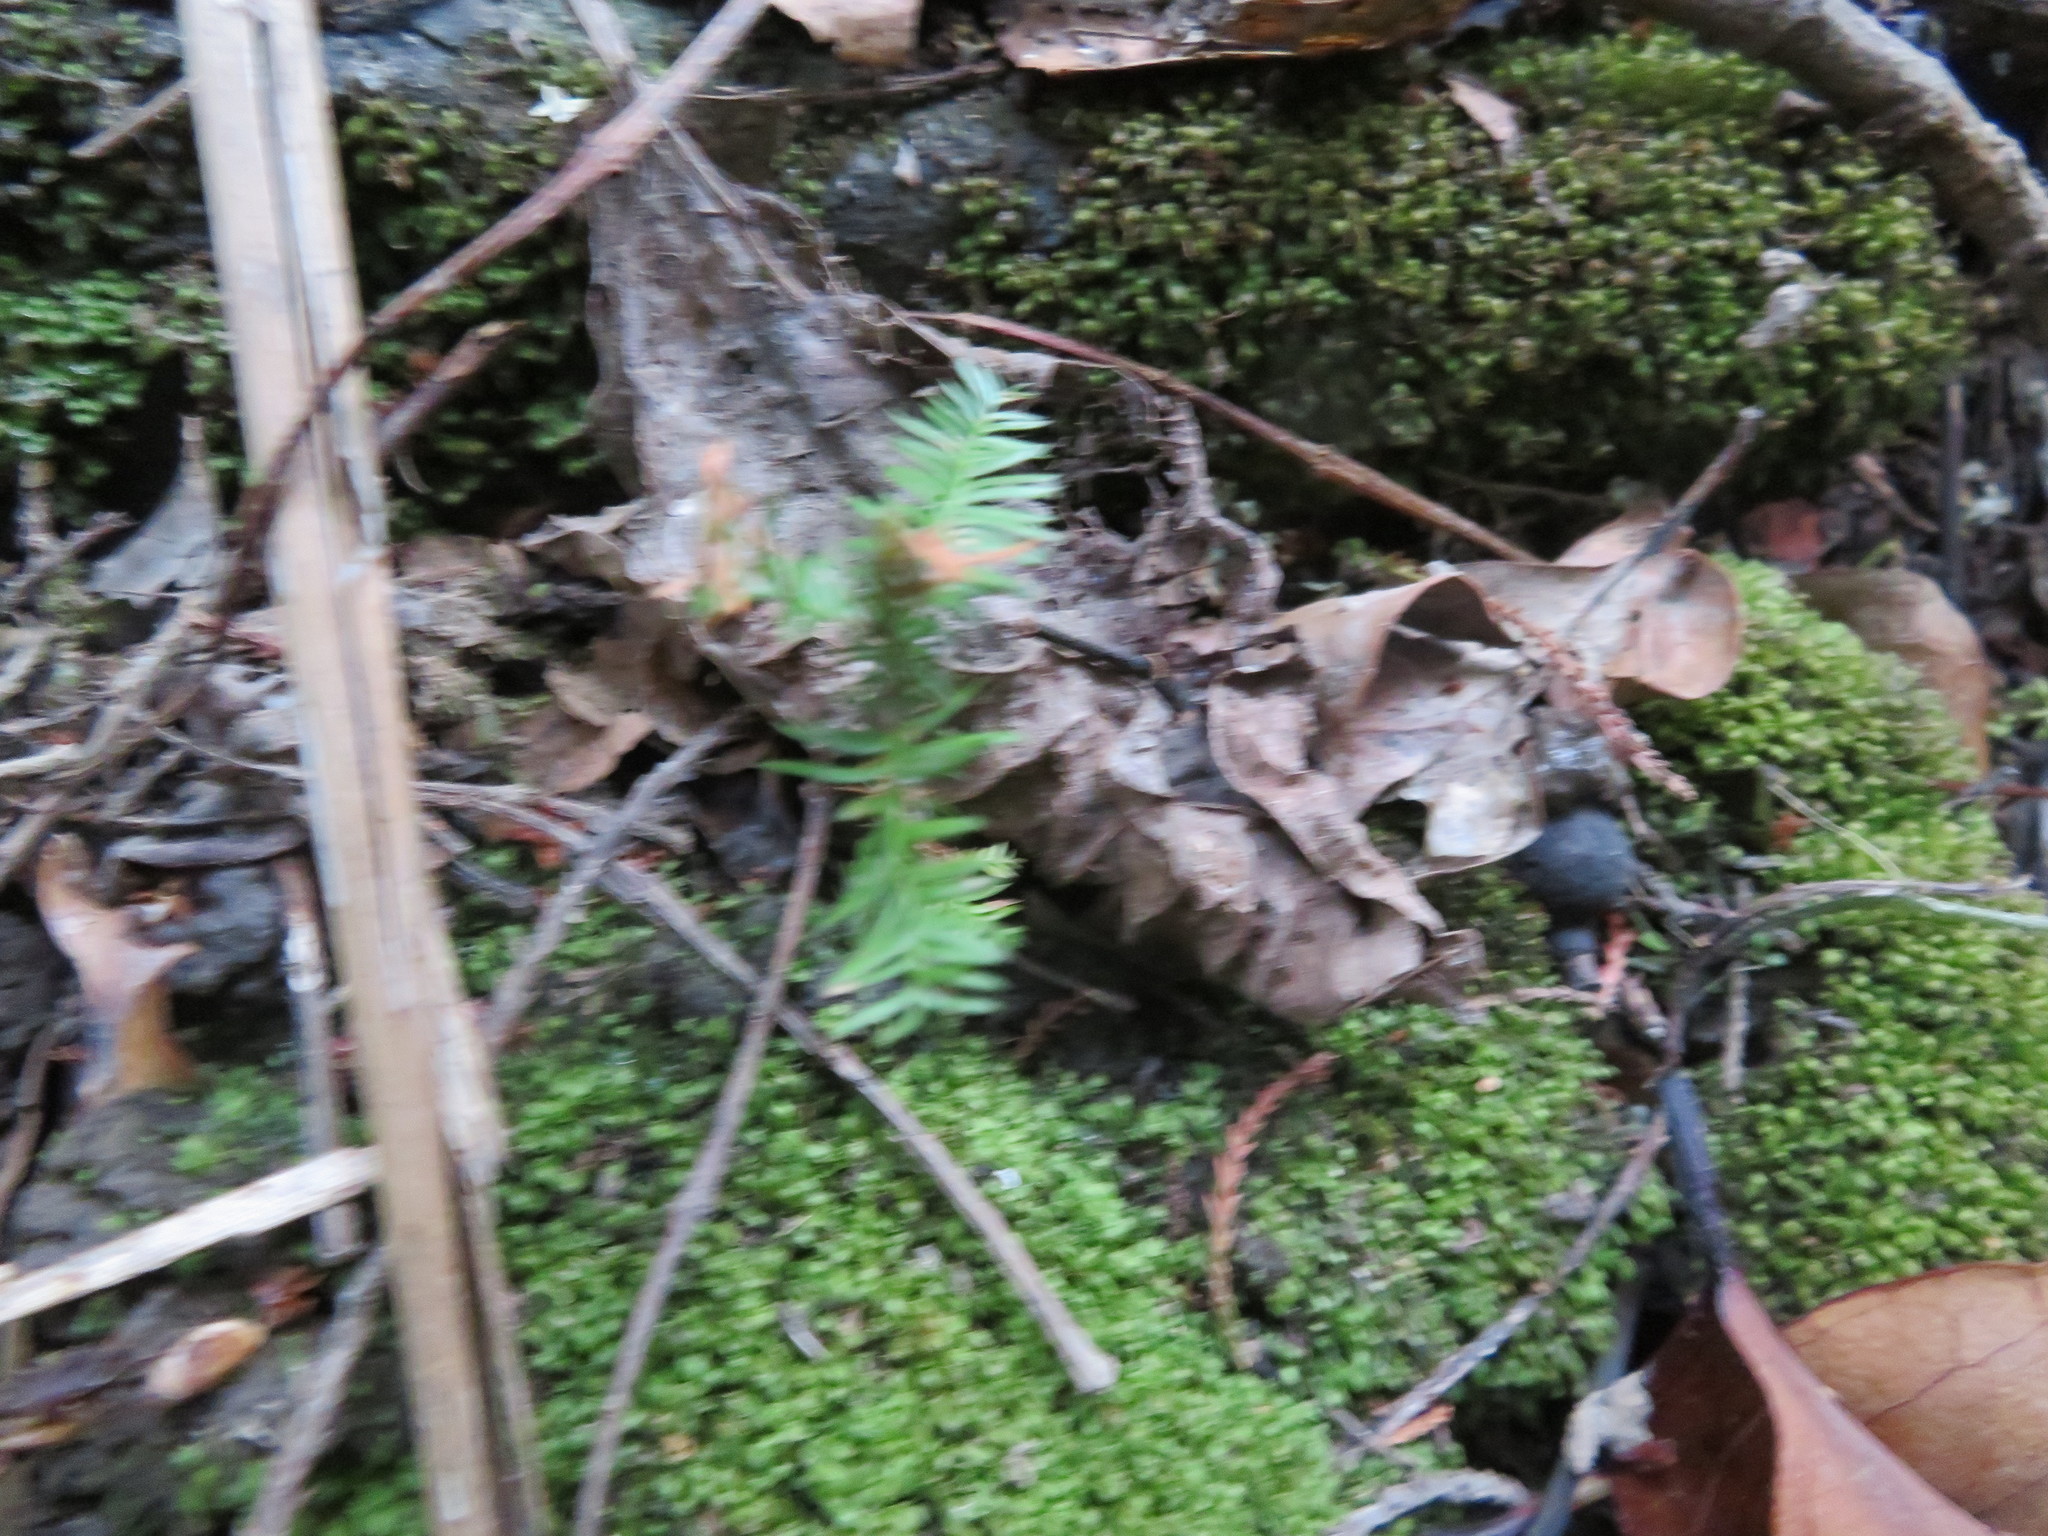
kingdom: Plantae
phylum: Tracheophyta
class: Pinopsida
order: Pinales
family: Podocarpaceae
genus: Dacrycarpus
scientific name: Dacrycarpus dacrydioides
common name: White pine
